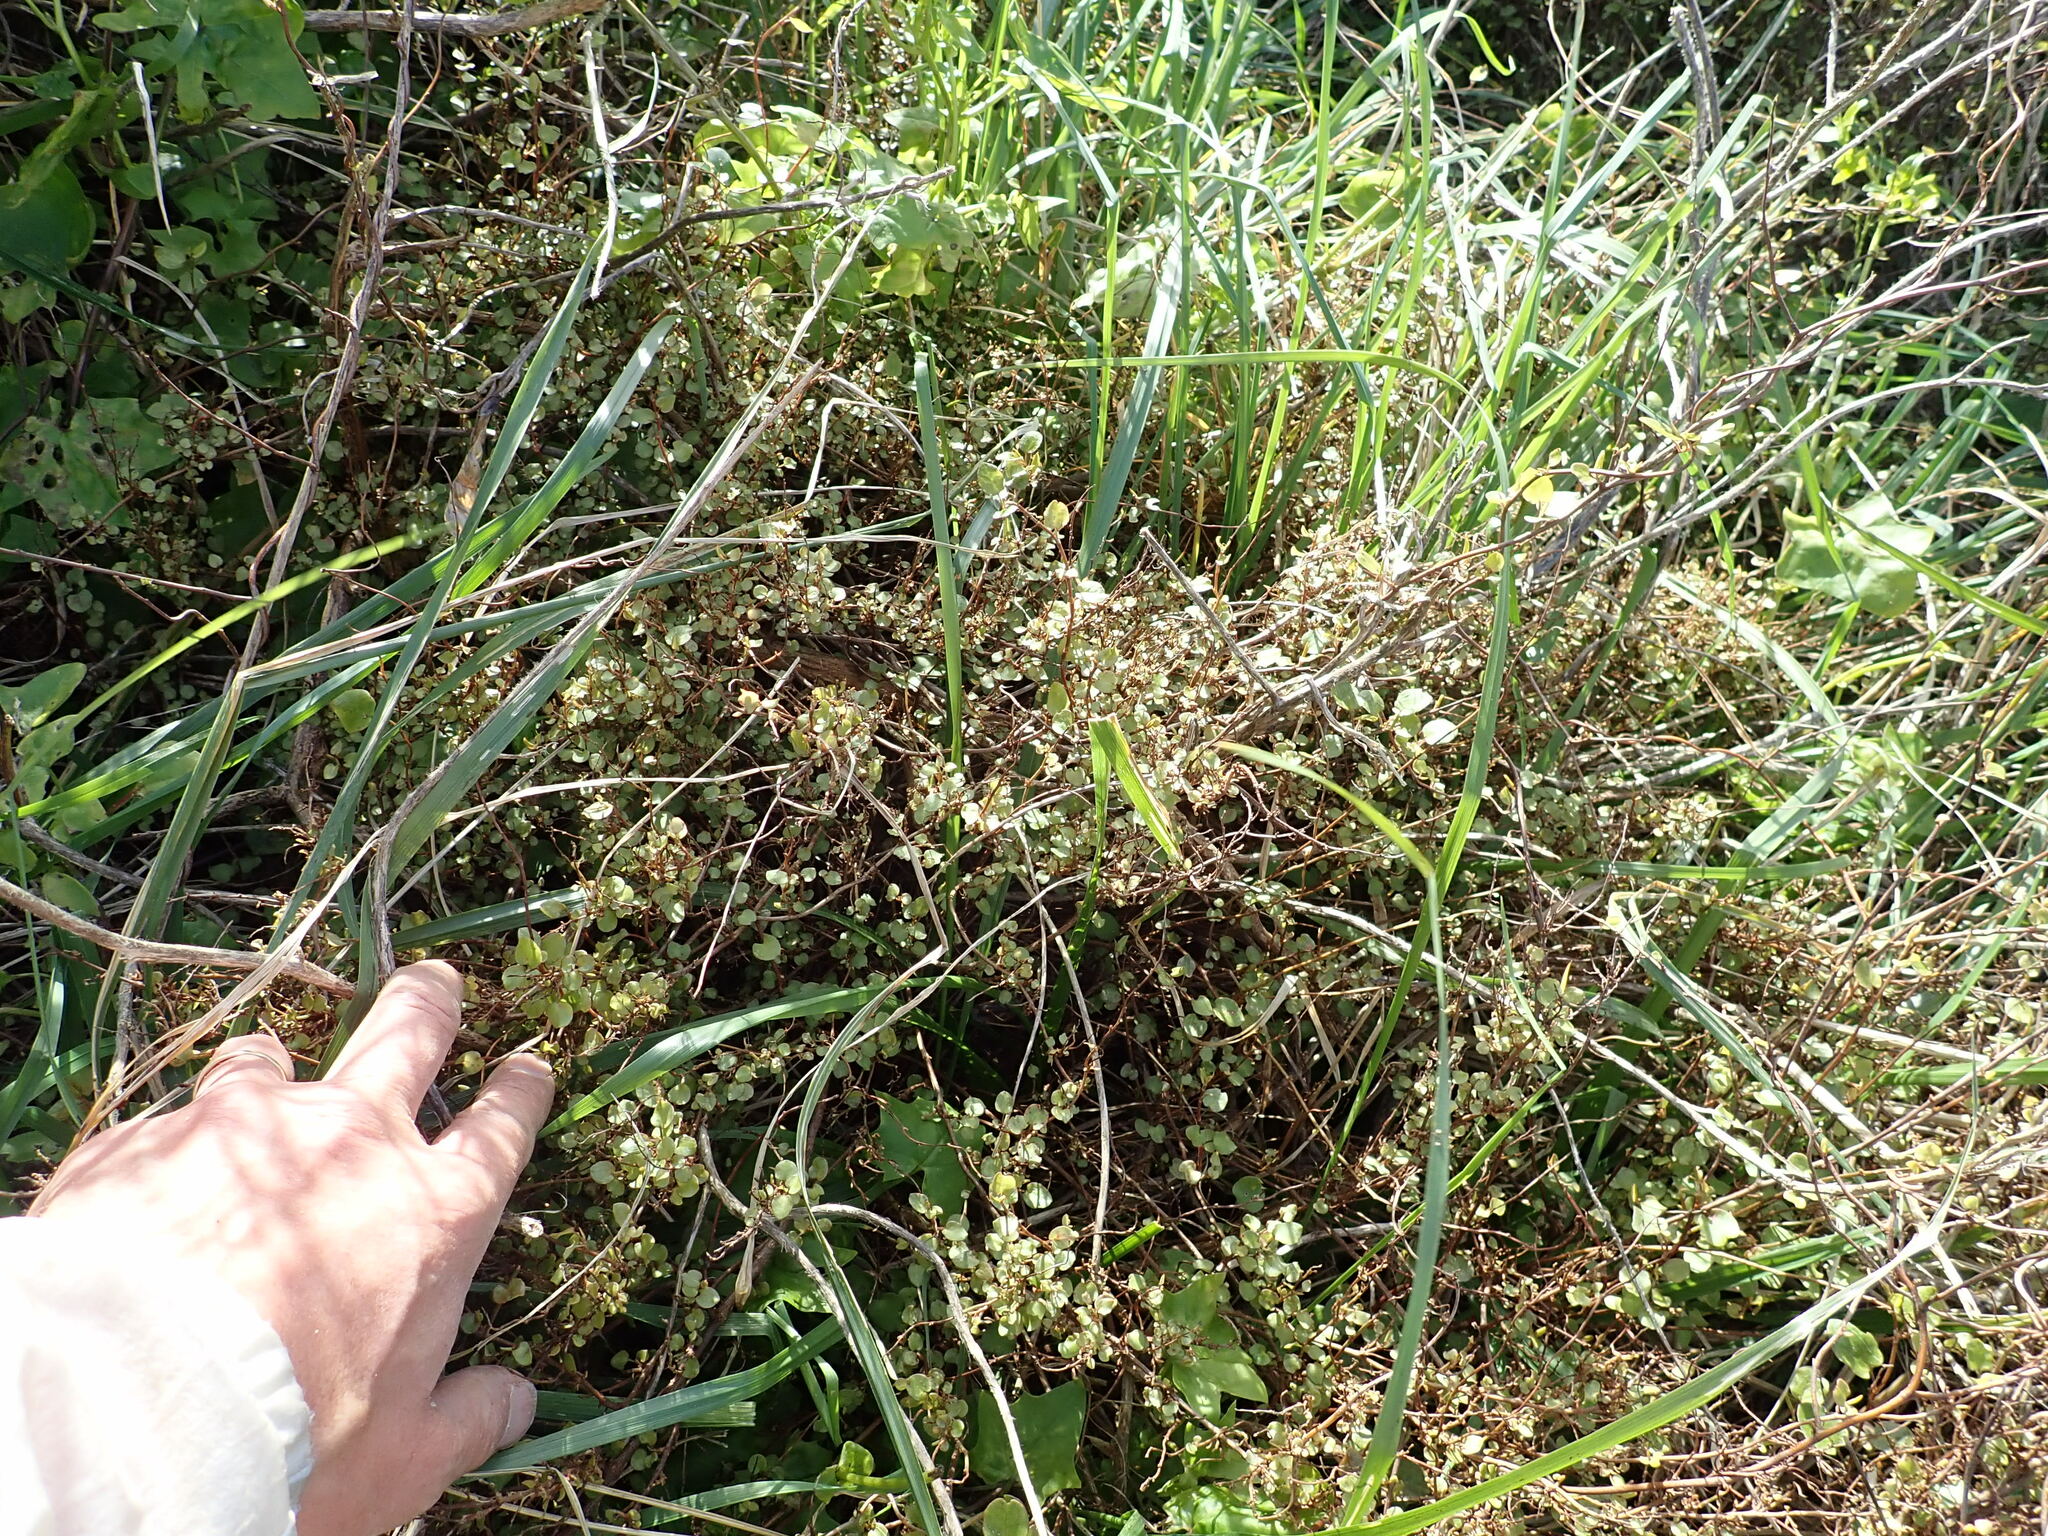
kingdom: Plantae
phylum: Tracheophyta
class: Magnoliopsida
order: Caryophyllales
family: Polygonaceae
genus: Muehlenbeckia
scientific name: Muehlenbeckia complexa
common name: Wireplant
